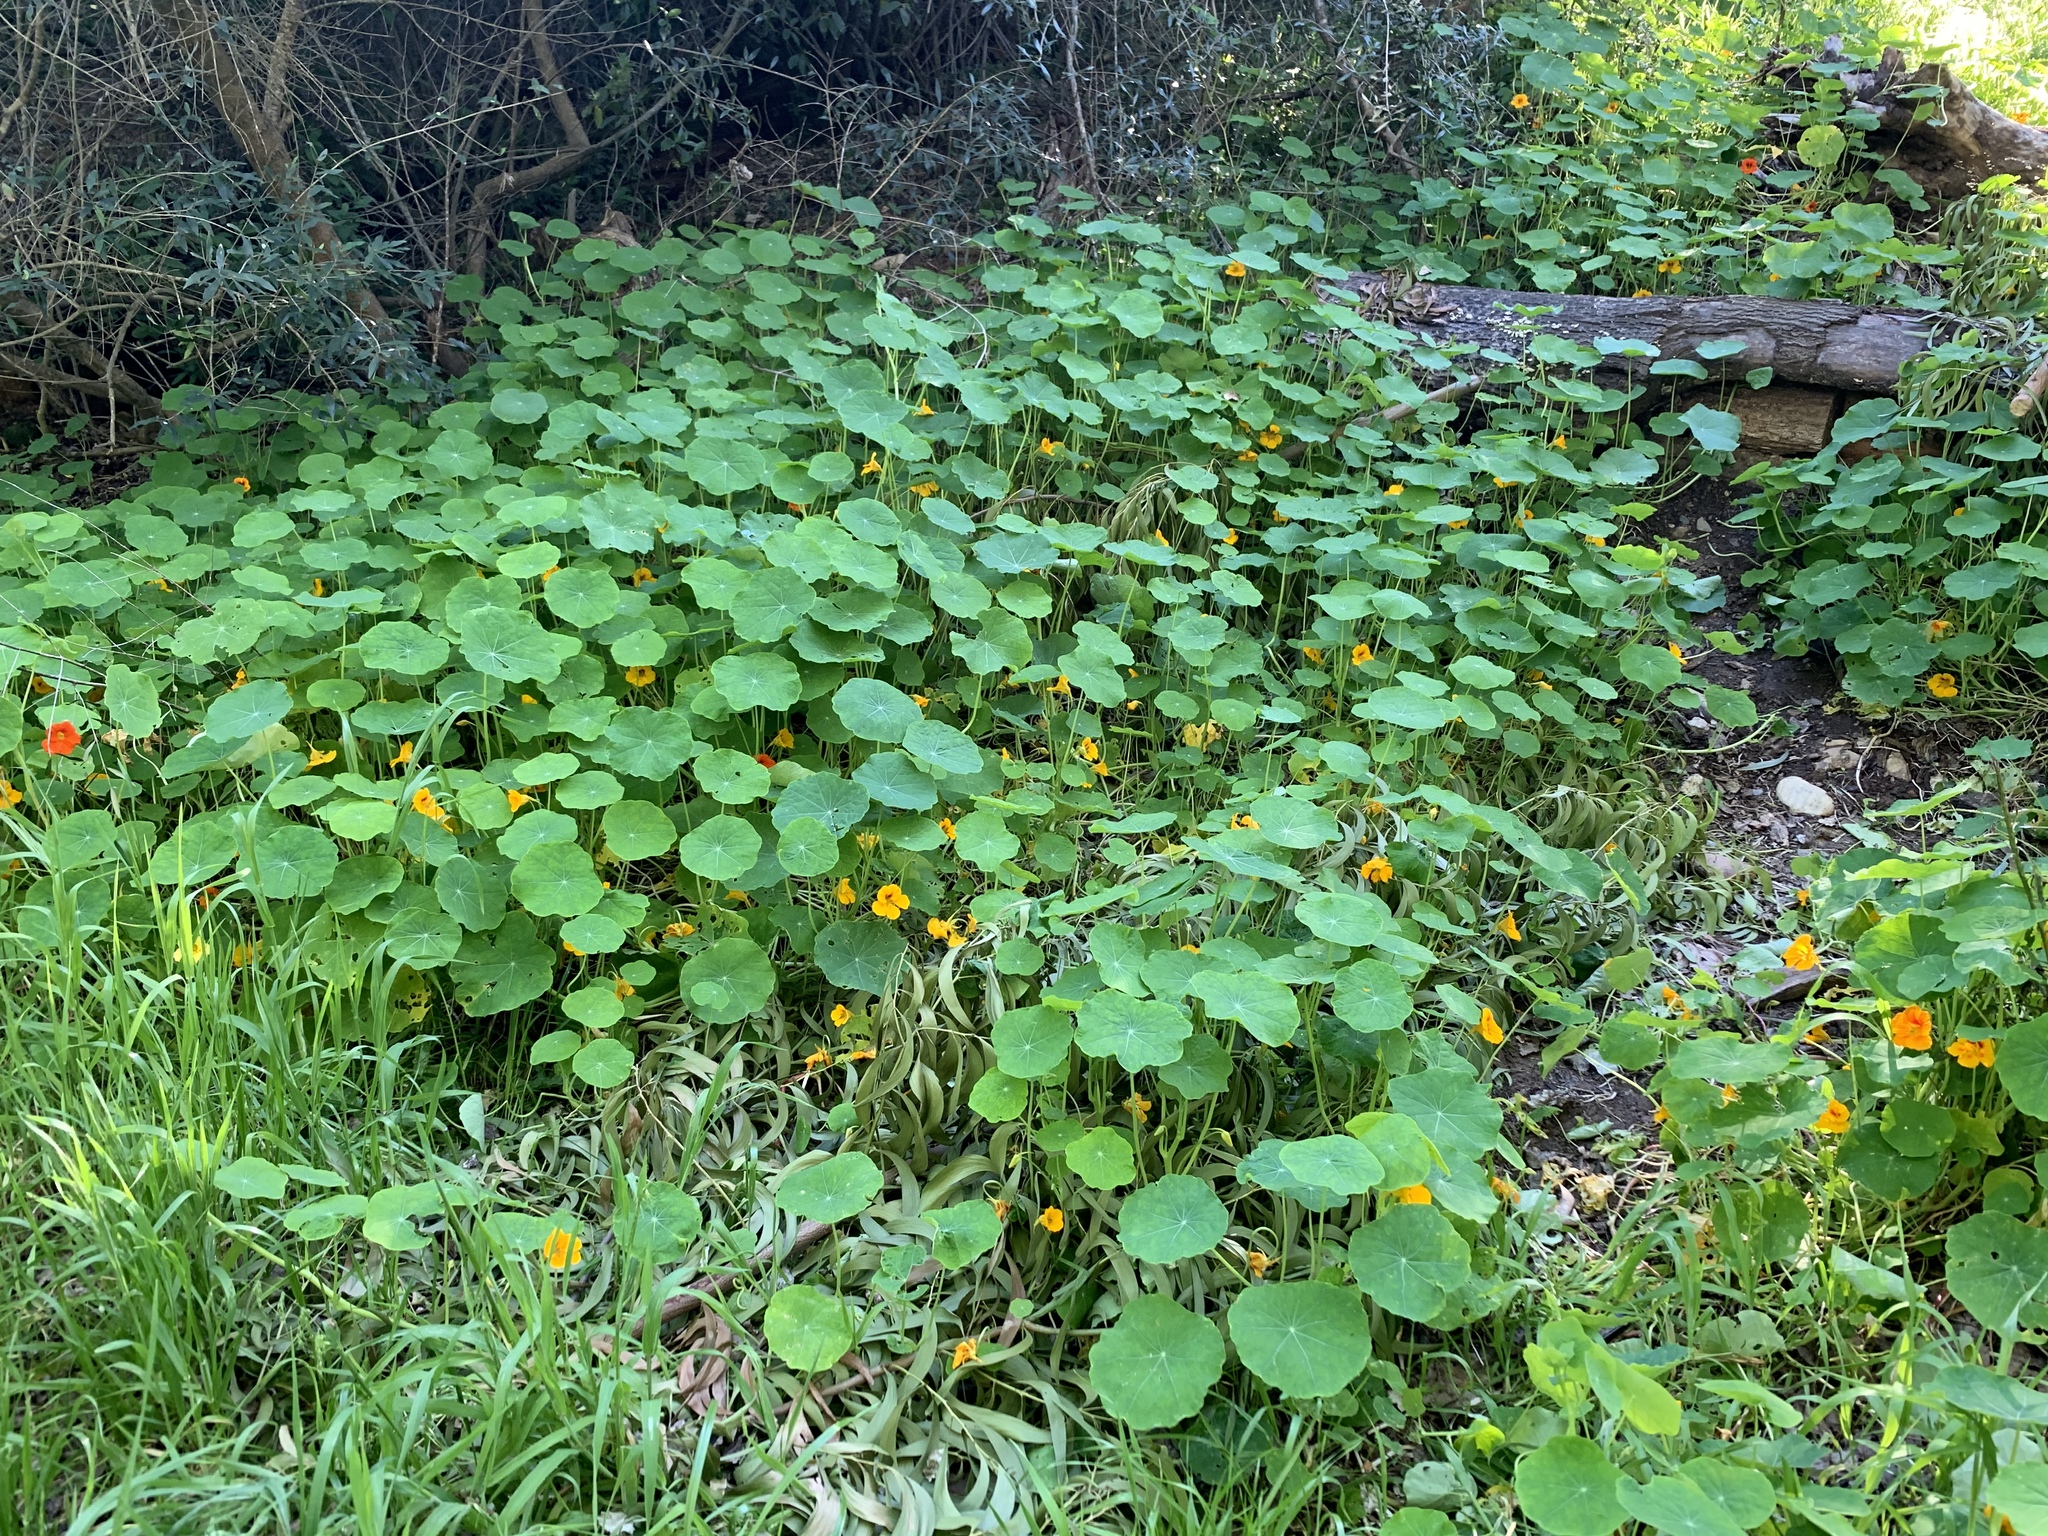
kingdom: Plantae
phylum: Tracheophyta
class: Magnoliopsida
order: Brassicales
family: Tropaeolaceae
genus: Tropaeolum
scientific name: Tropaeolum majus
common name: Nasturtium
